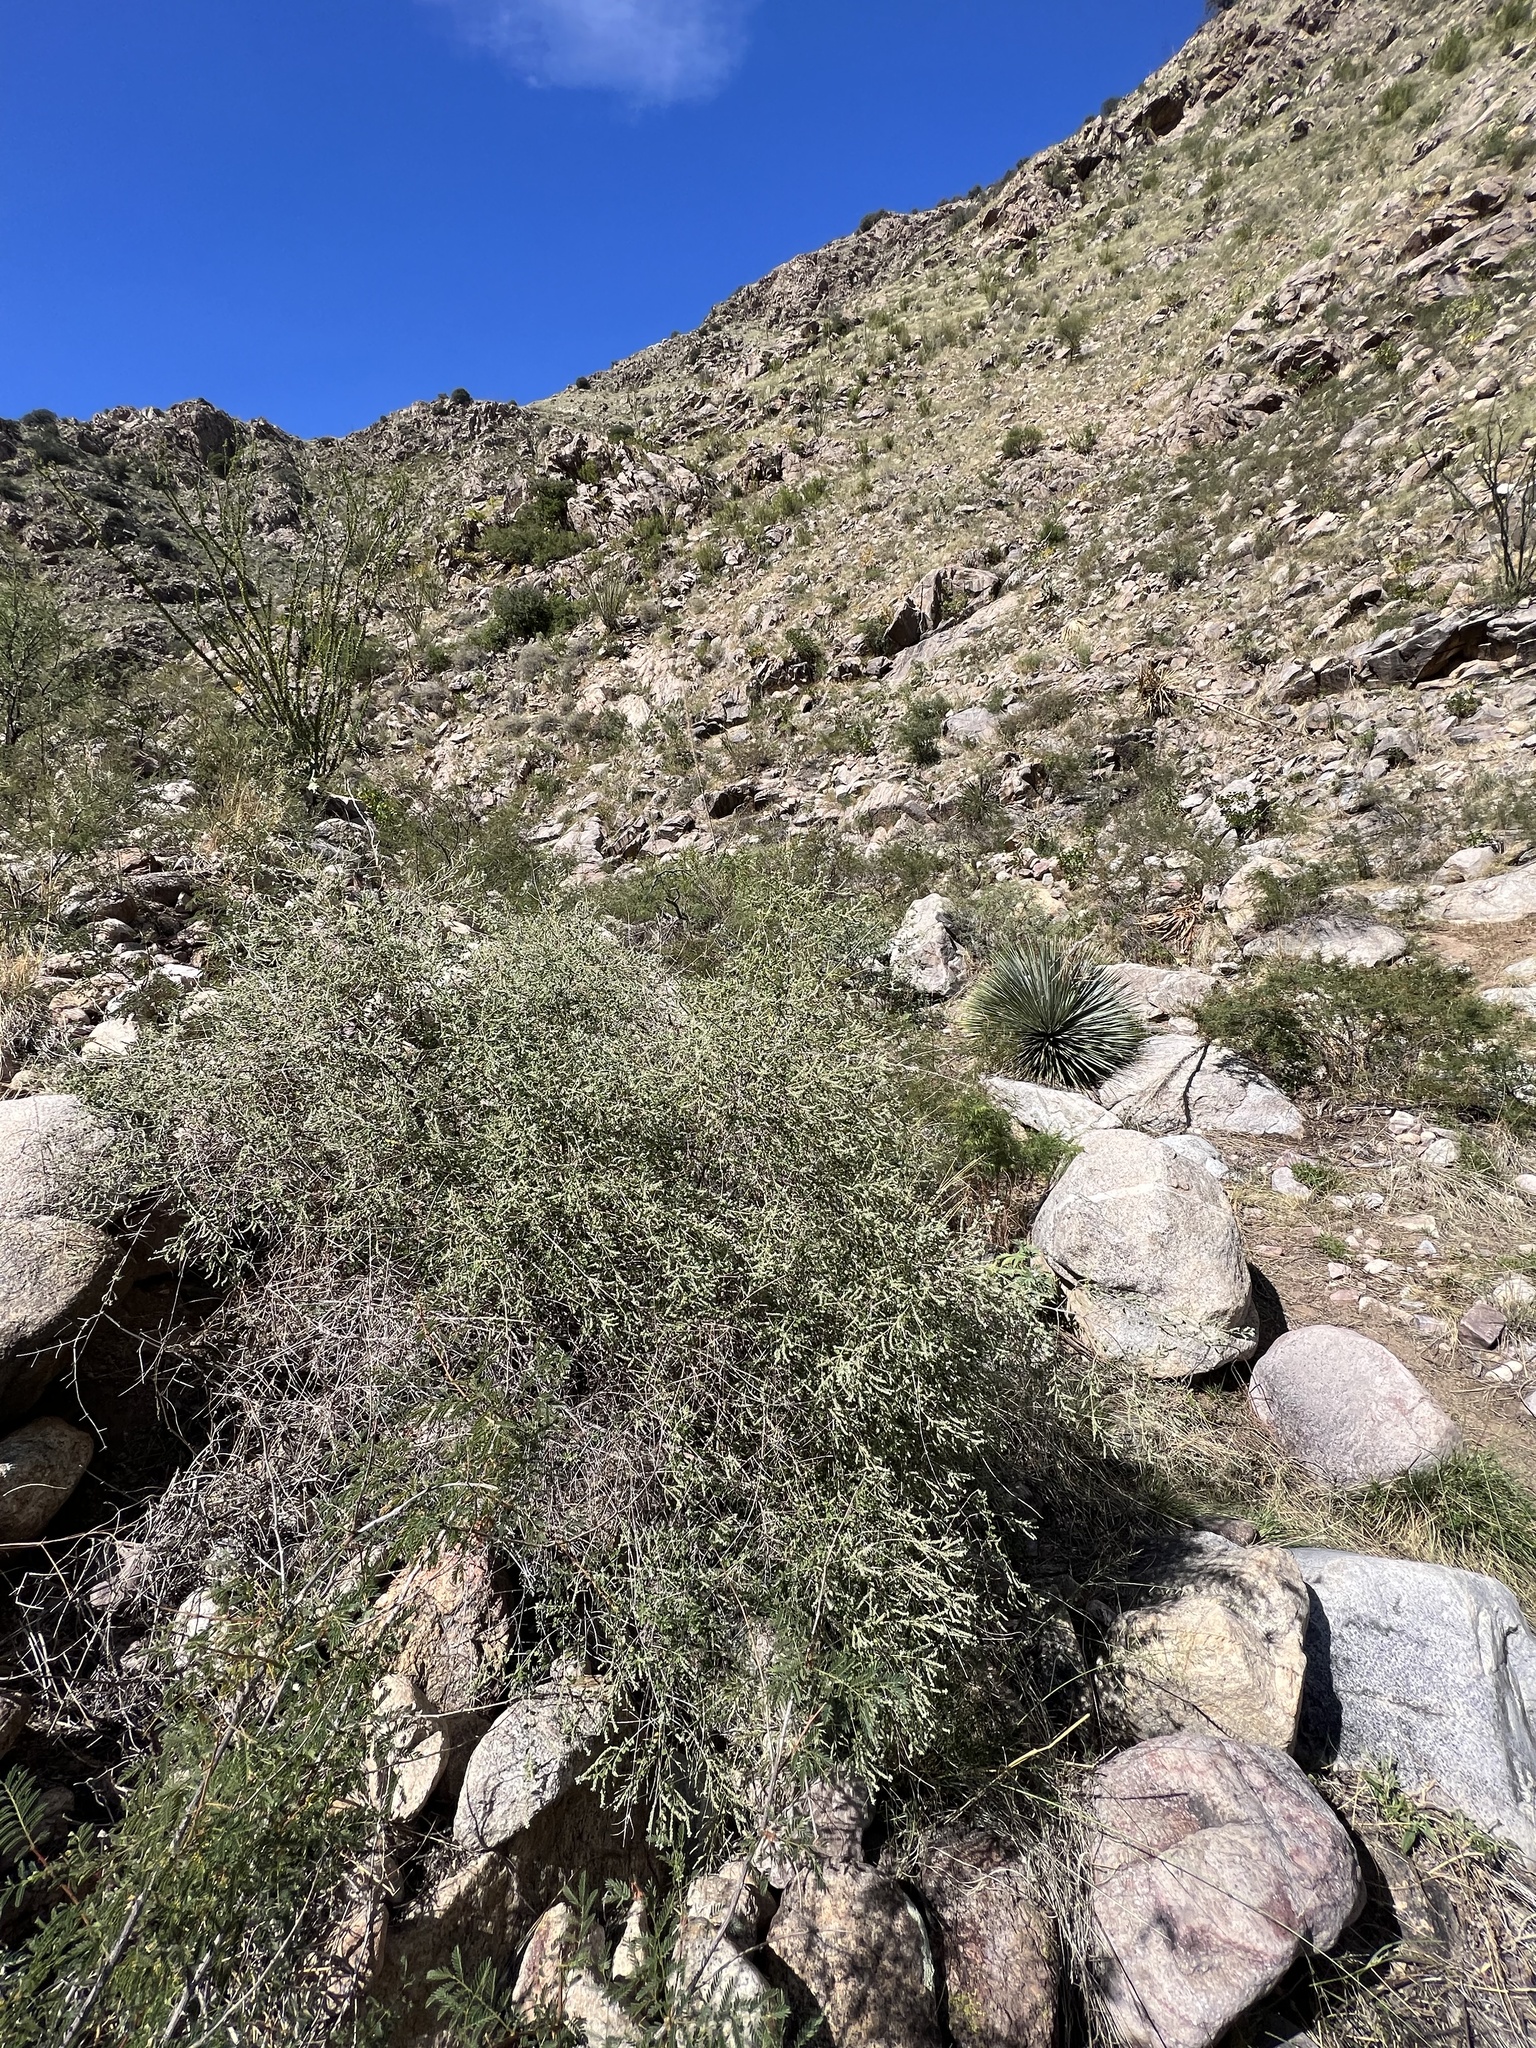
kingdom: Plantae
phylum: Tracheophyta
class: Magnoliopsida
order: Lamiales
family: Verbenaceae
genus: Aloysia
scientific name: Aloysia wrightii
